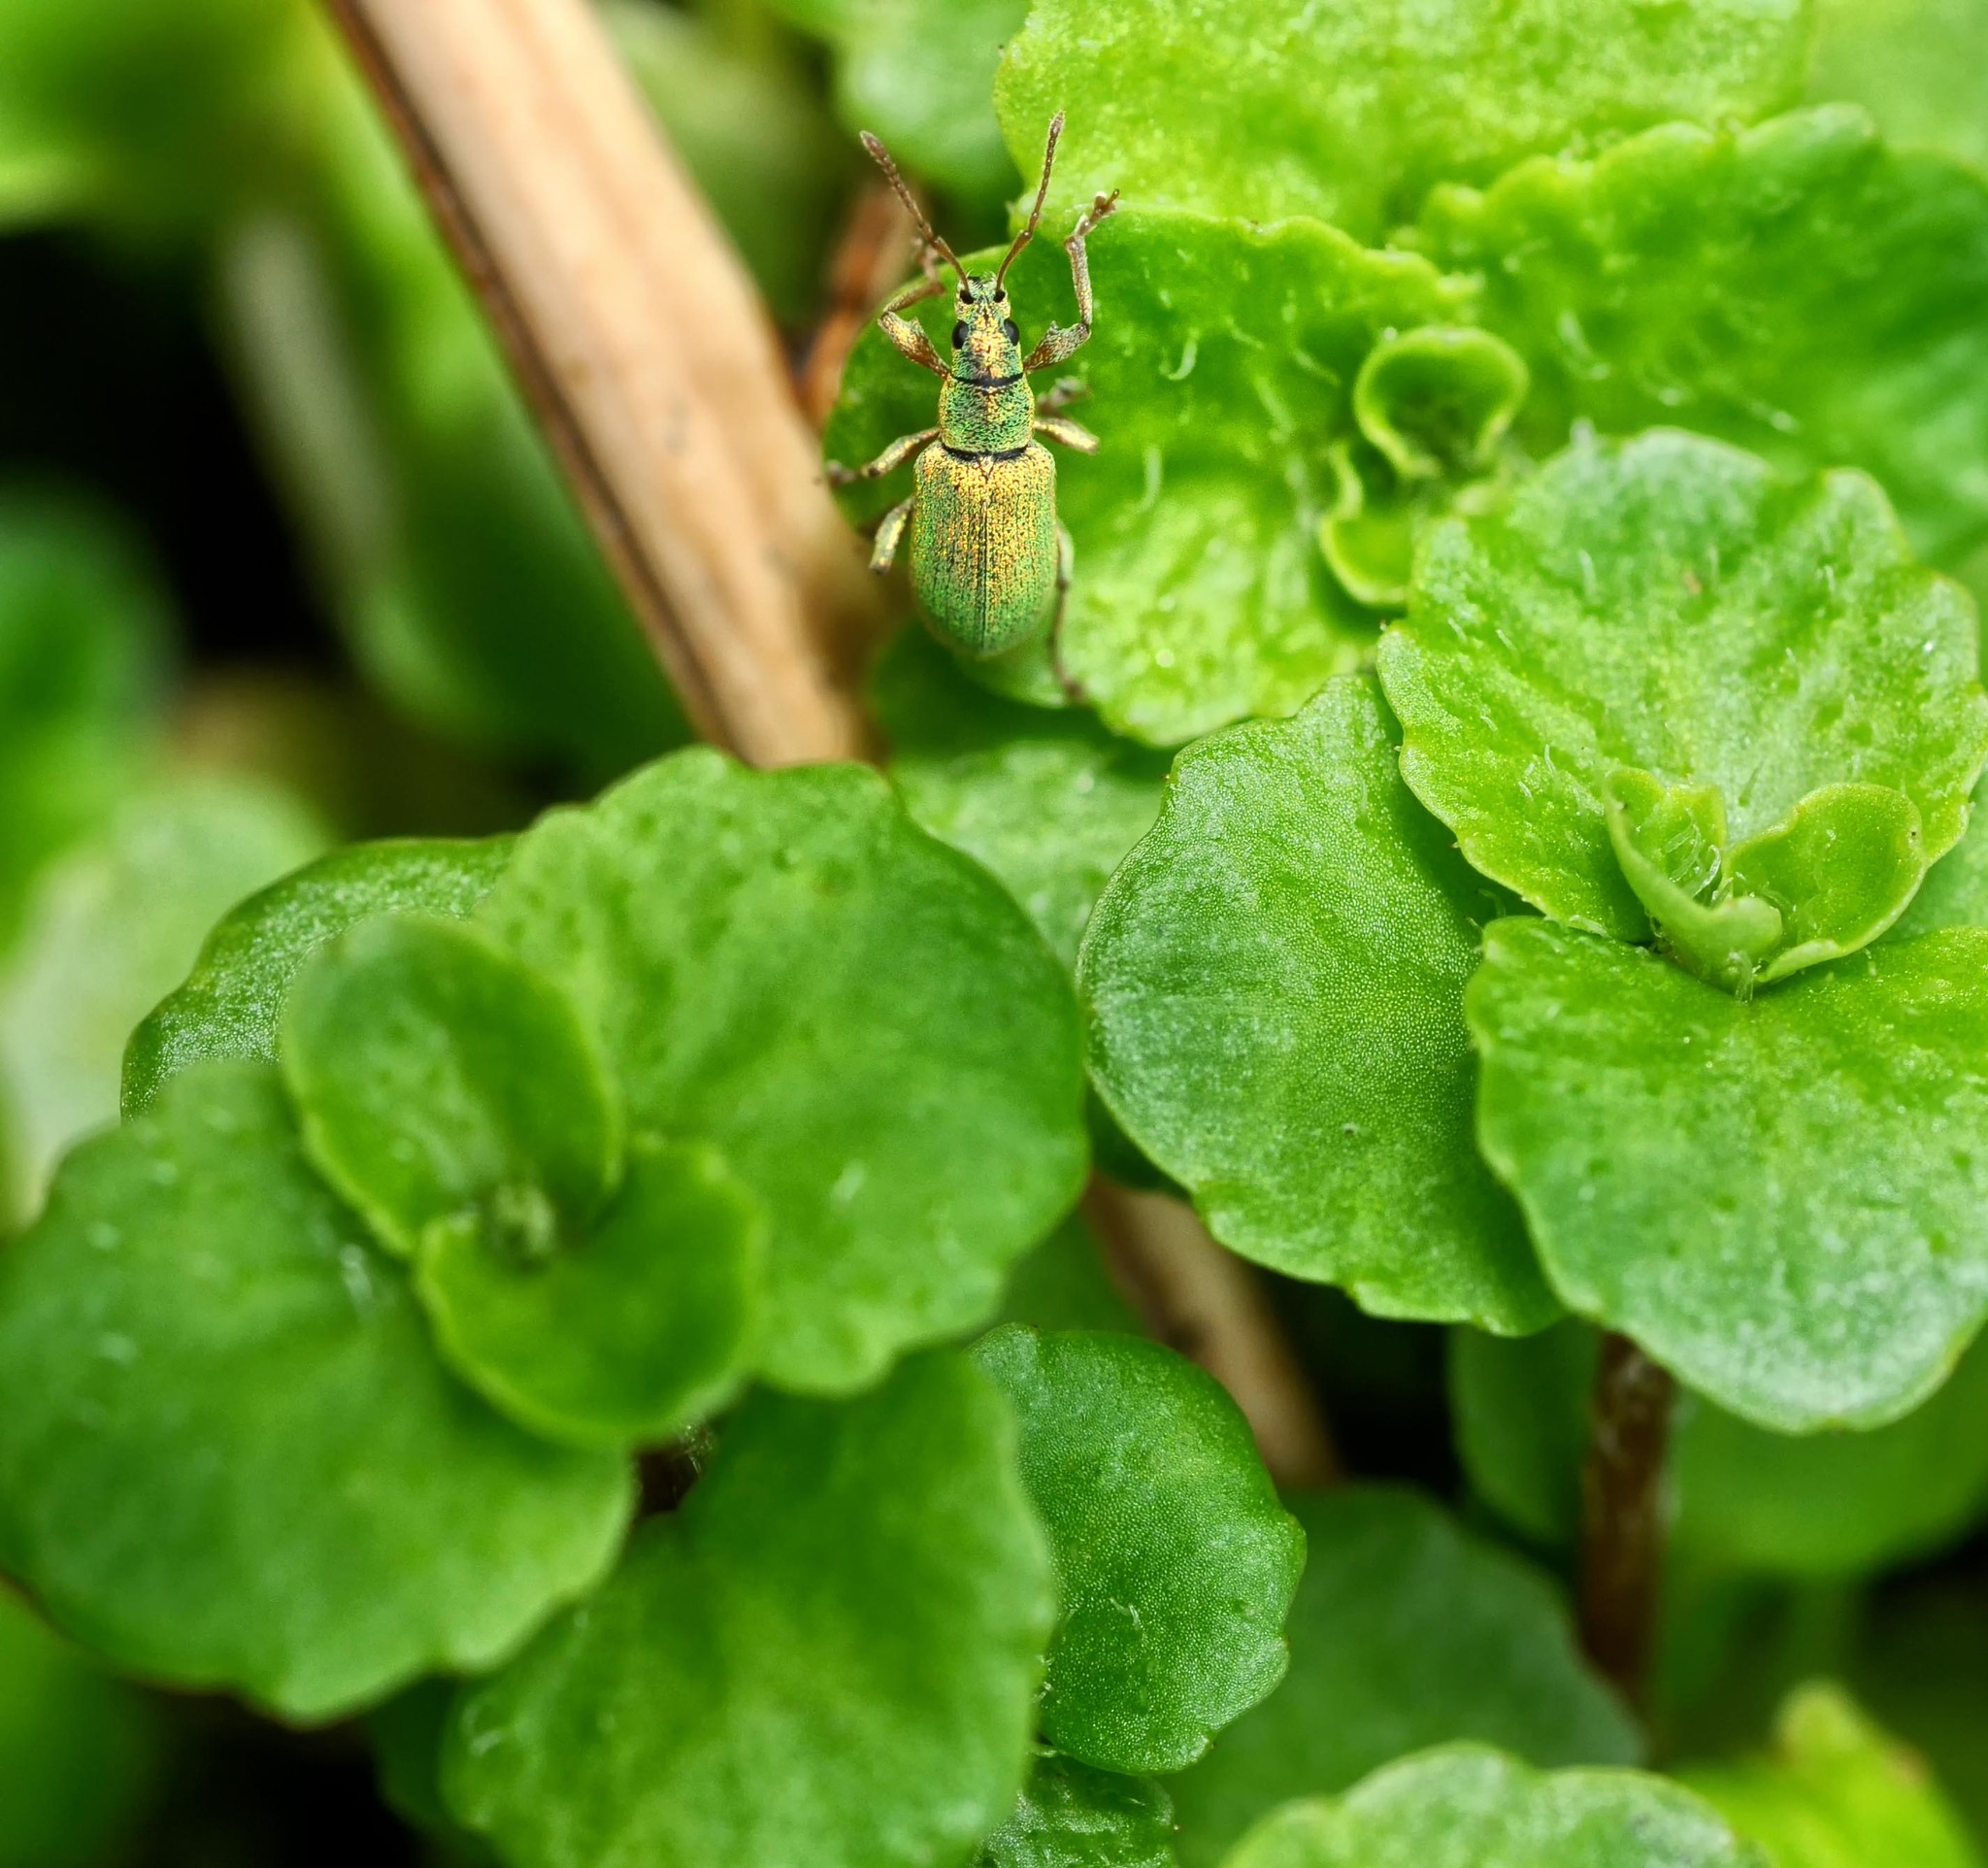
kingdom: Animalia
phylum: Arthropoda
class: Insecta
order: Coleoptera
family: Curculionidae
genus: Phyllobius
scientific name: Phyllobius argentatus
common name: Silver-green leaf weevil
